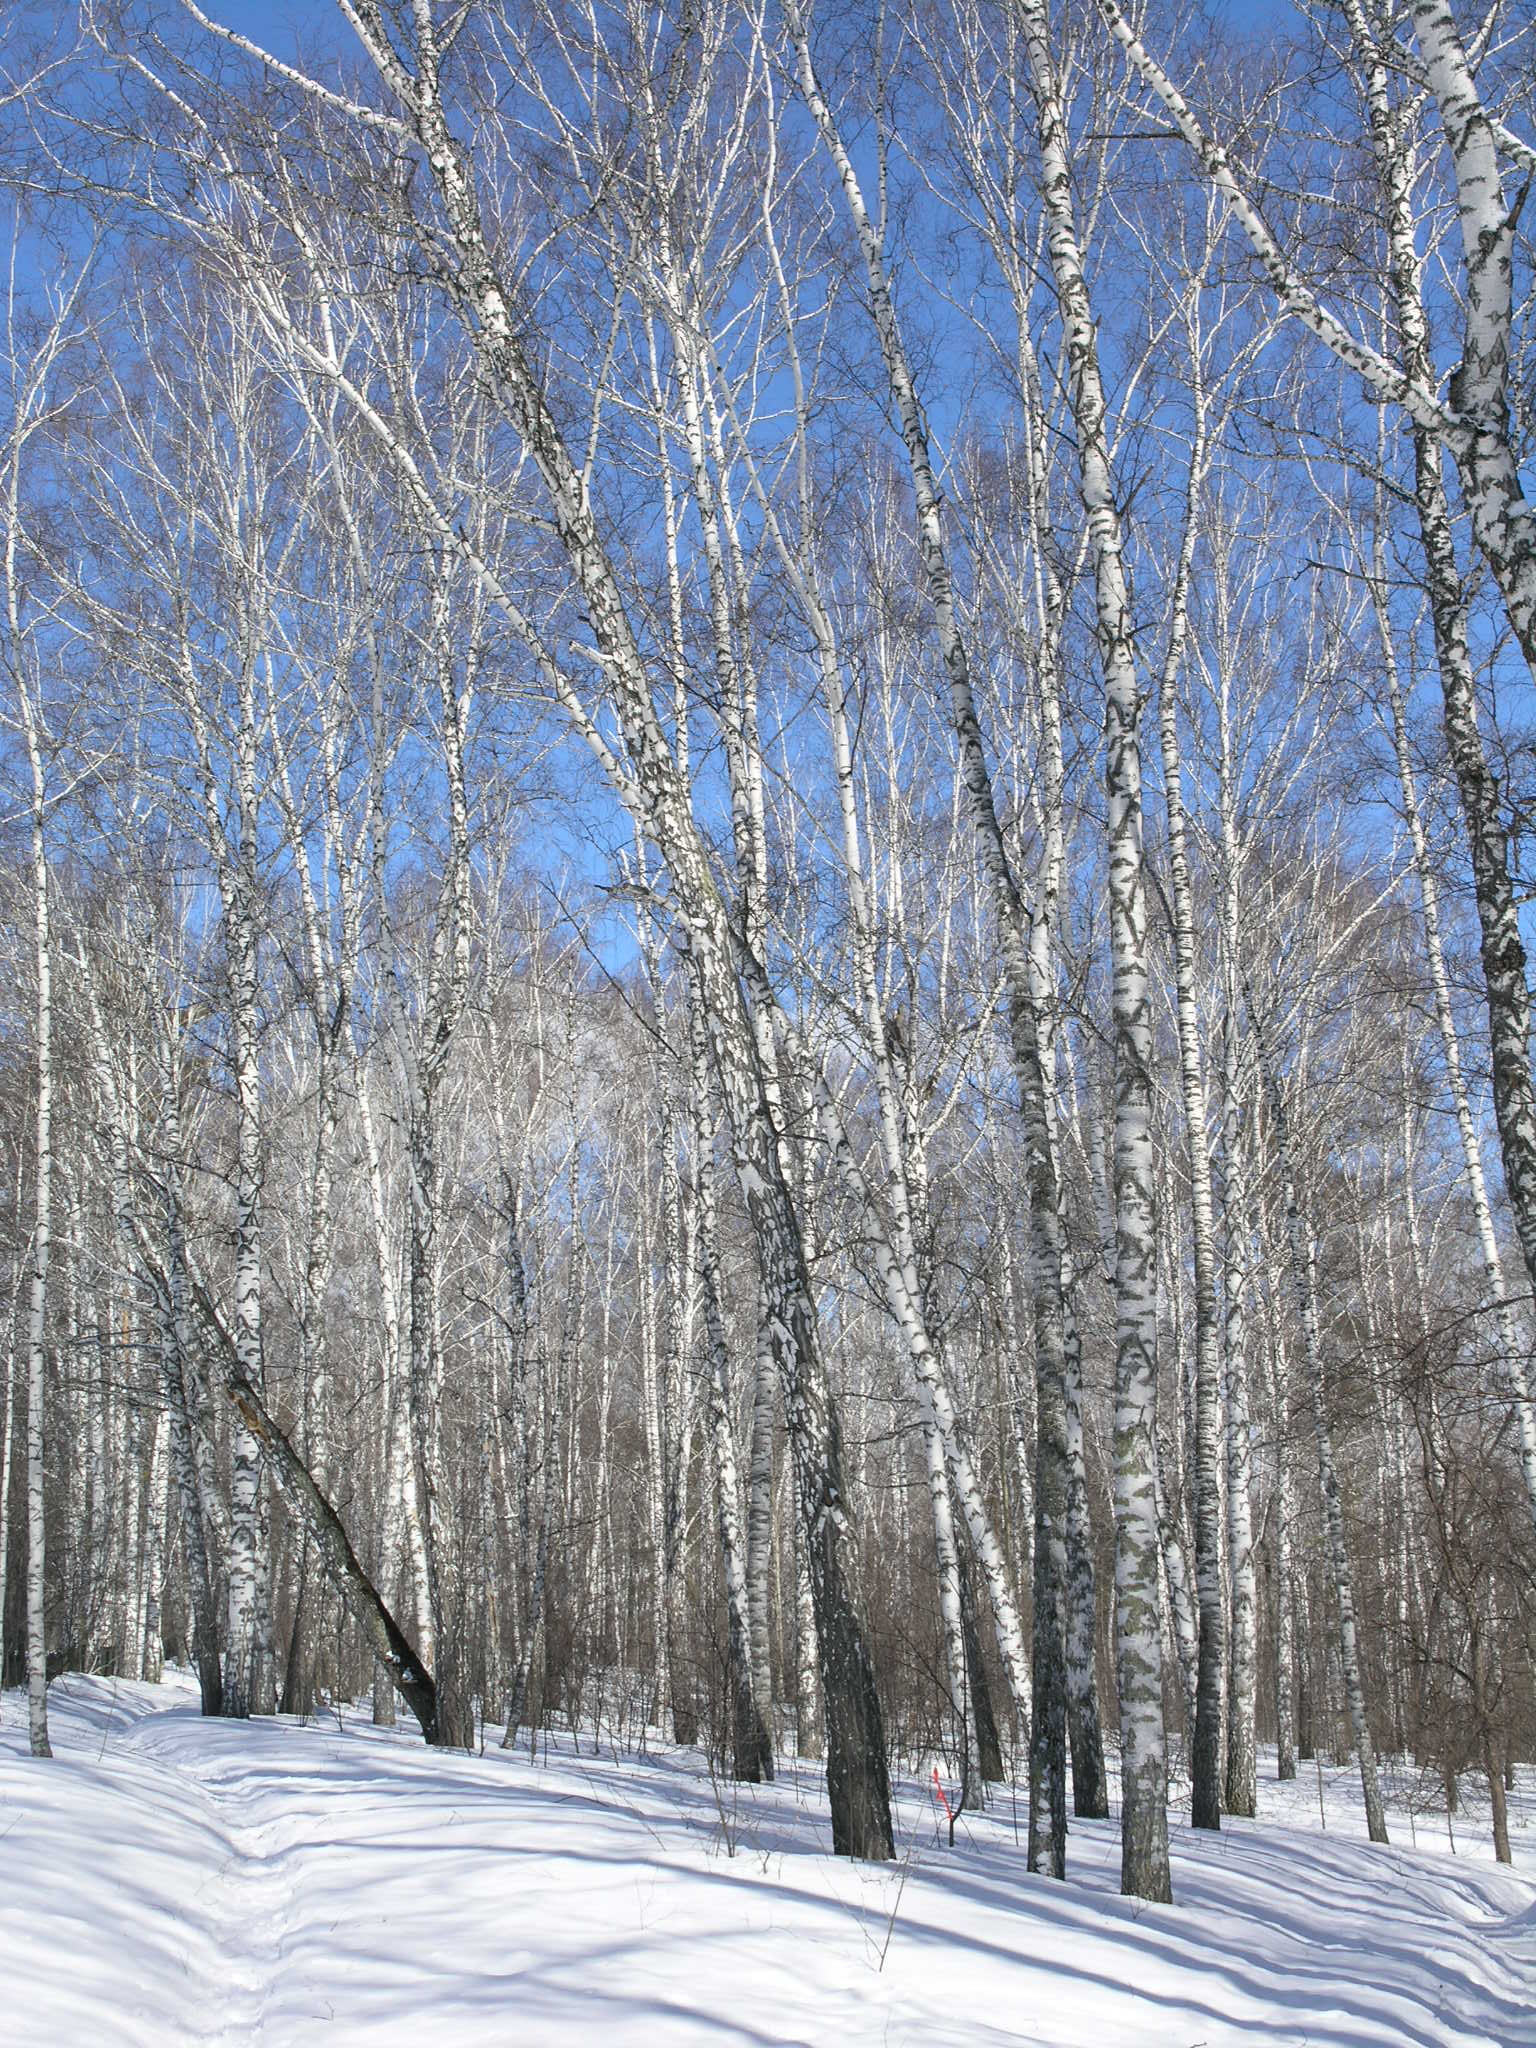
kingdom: Plantae
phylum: Tracheophyta
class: Magnoliopsida
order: Fagales
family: Betulaceae
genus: Betula
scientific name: Betula pendula
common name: Silver birch
